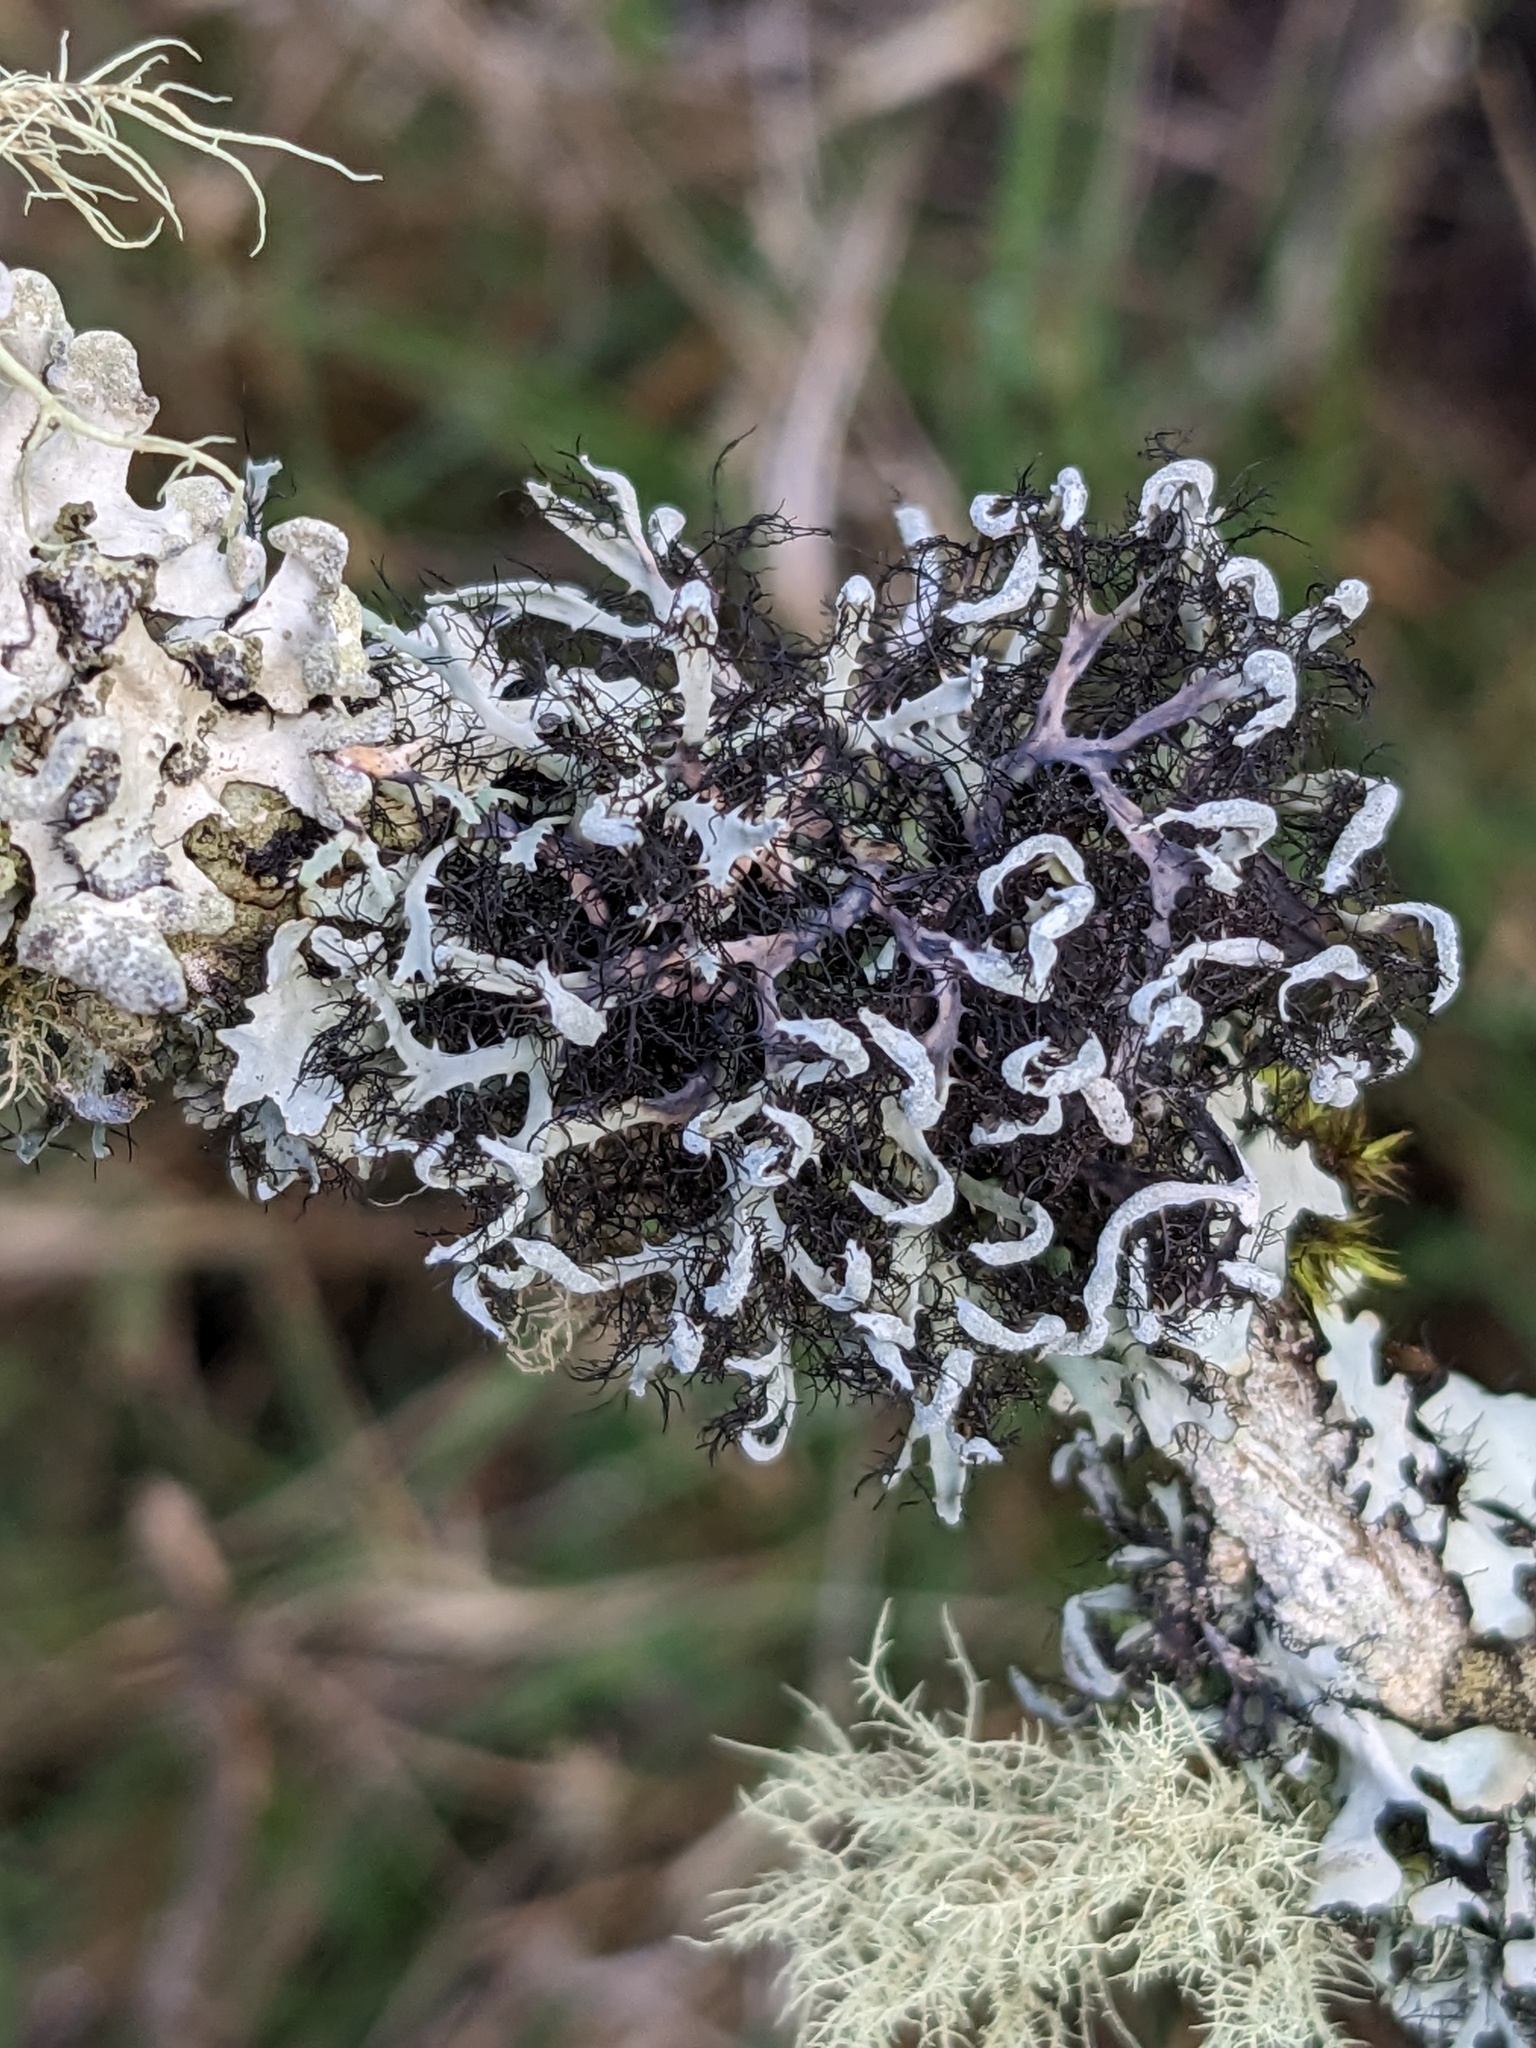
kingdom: Fungi
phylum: Ascomycota
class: Lecanoromycetes
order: Caliciales
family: Physciaceae
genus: Leucodermia
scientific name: Leucodermia leucomelos
